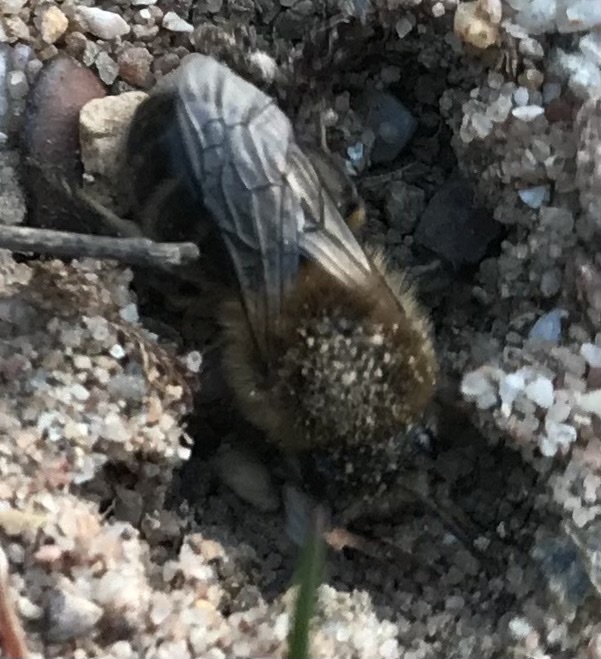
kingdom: Animalia
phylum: Arthropoda
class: Insecta
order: Hymenoptera
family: Colletidae
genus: Colletes
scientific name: Colletes cunicularius
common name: Early colletes
